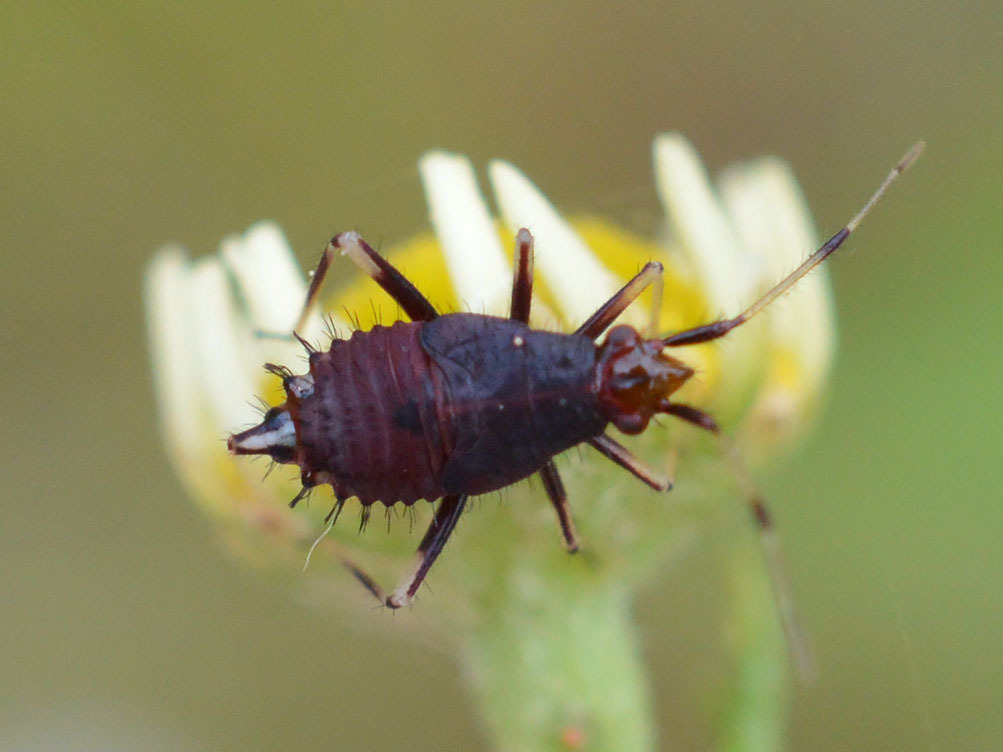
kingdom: Animalia
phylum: Arthropoda
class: Insecta
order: Hemiptera
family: Miridae
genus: Deraeocoris
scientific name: Deraeocoris ruber
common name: Plant bug
